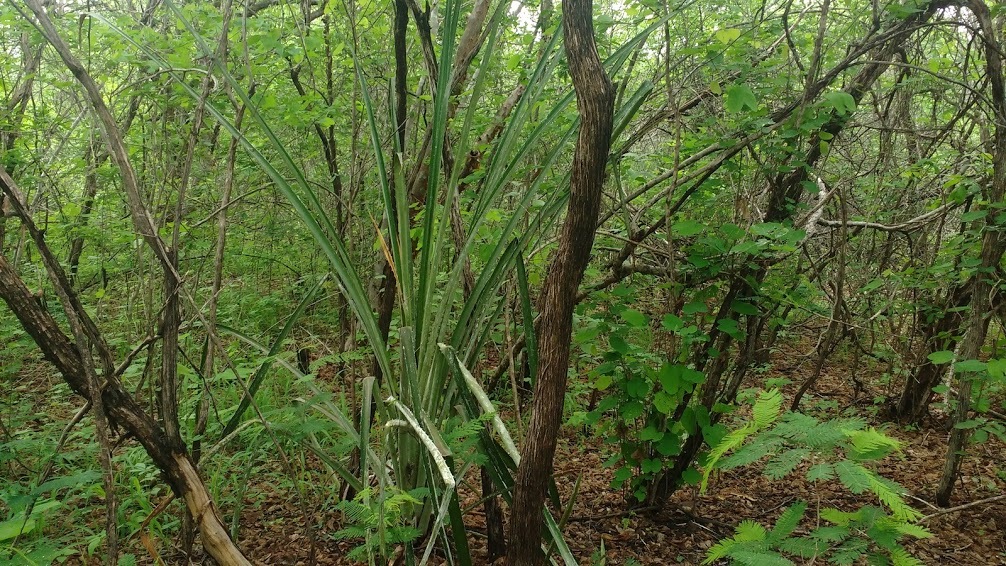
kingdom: Plantae
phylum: Tracheophyta
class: Liliopsida
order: Poales
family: Bromeliaceae
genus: Bromelia
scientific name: Bromelia grandiflora
